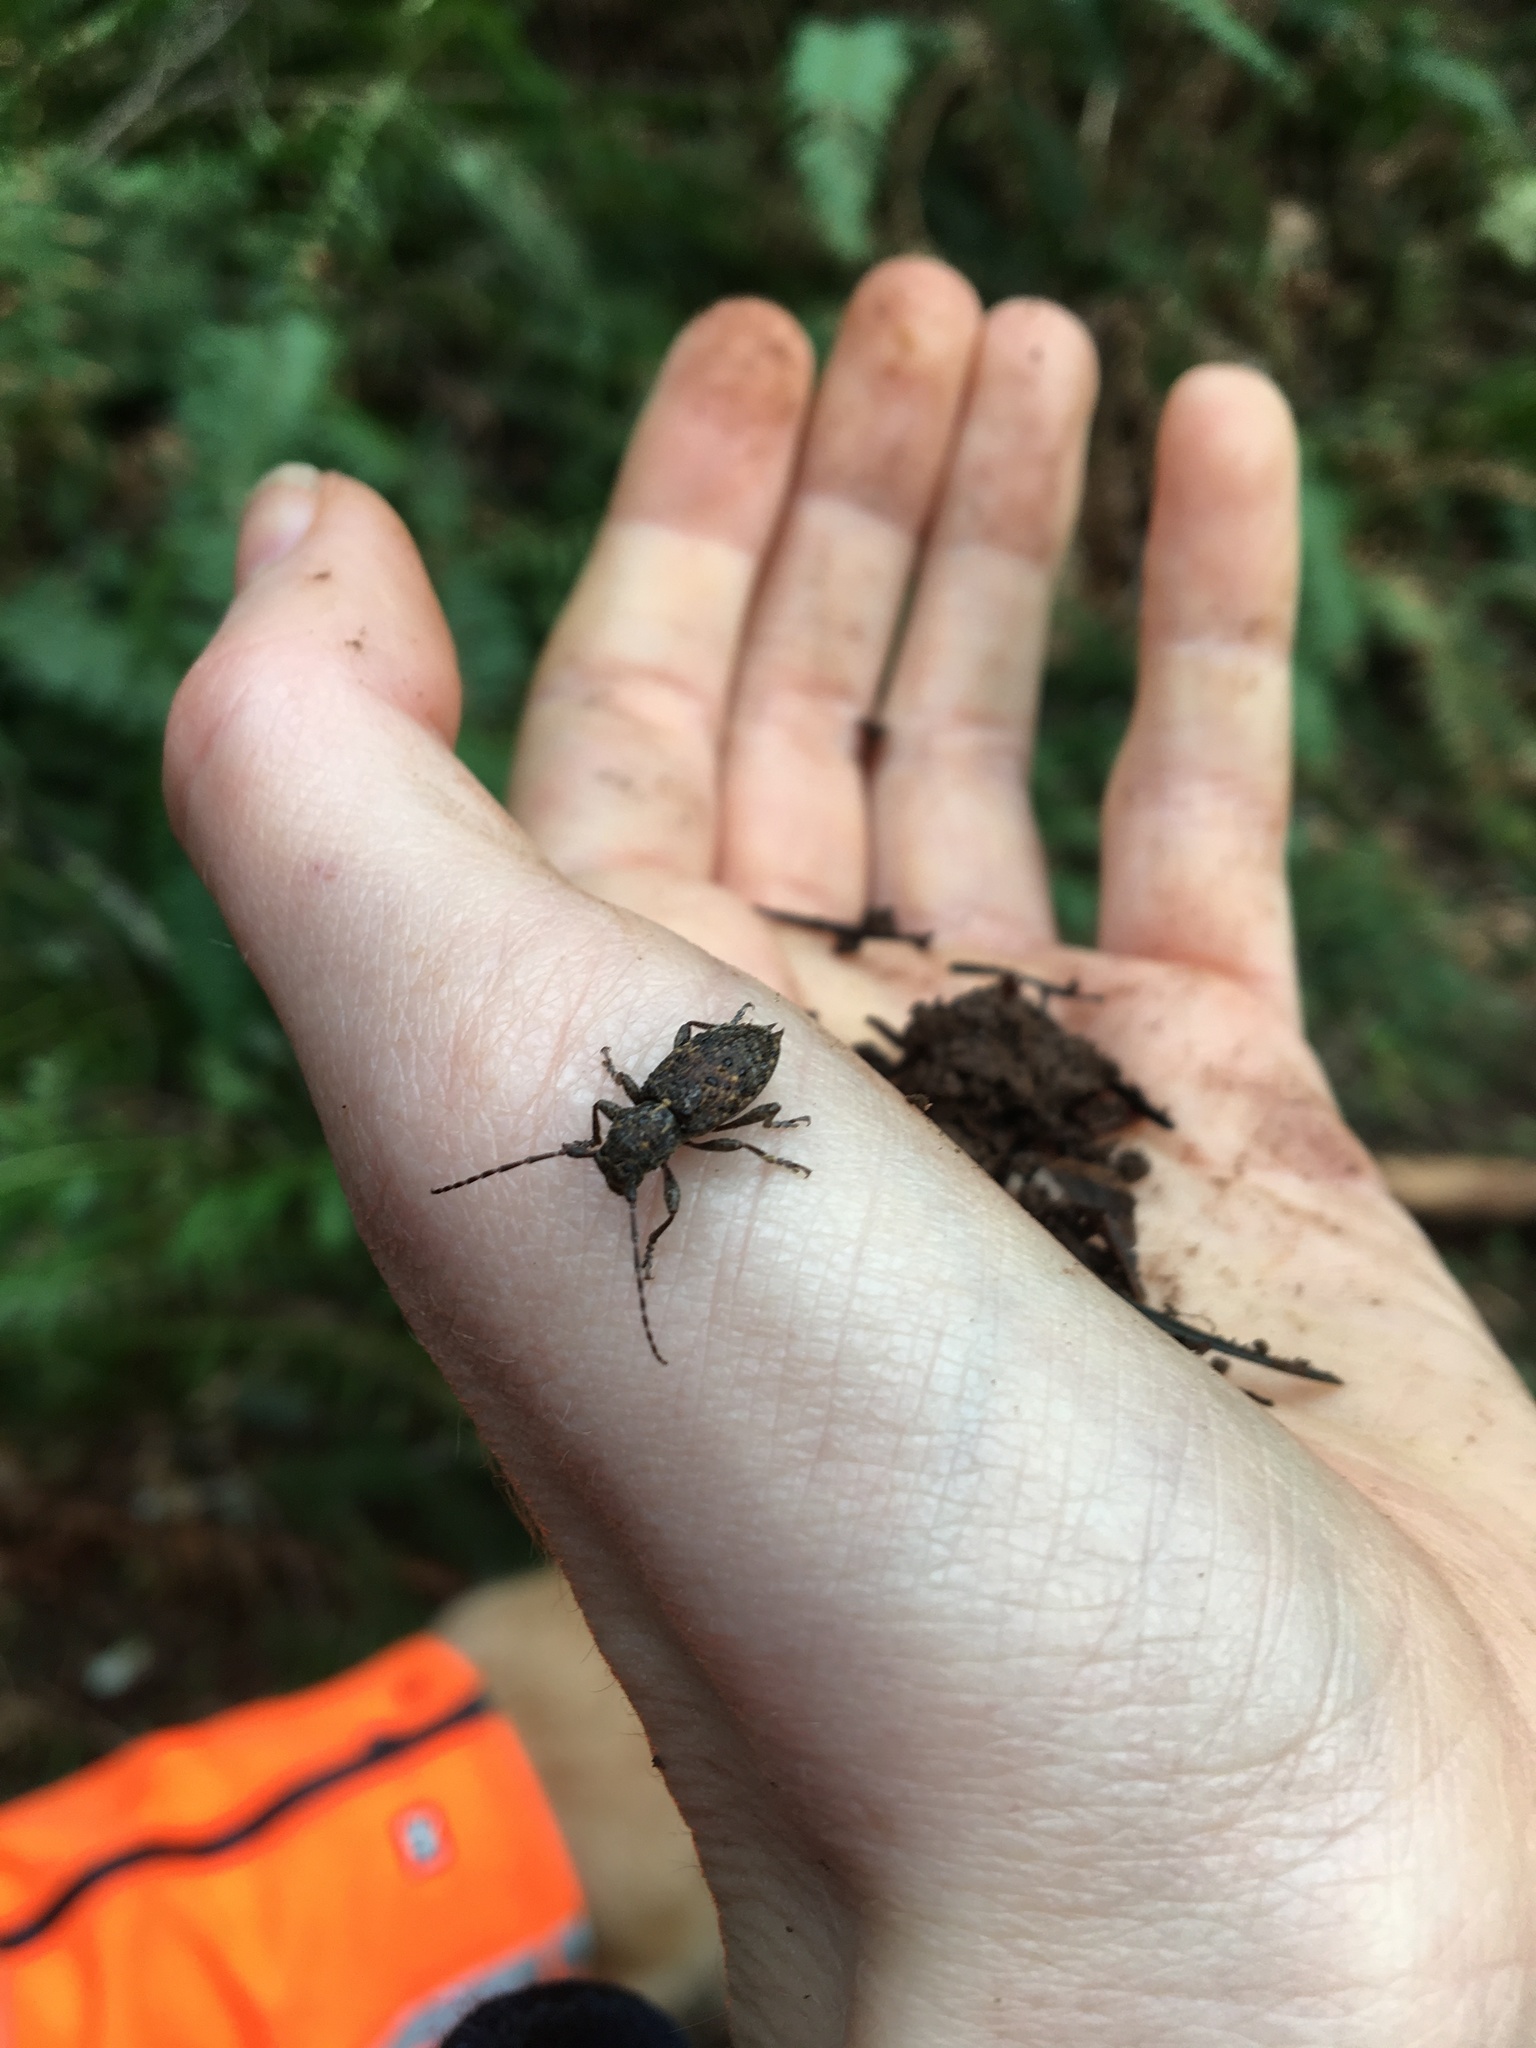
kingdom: Animalia
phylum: Arthropoda
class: Insecta
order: Coleoptera
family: Cerambycidae
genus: Plectrura
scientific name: Plectrura spinicauda
